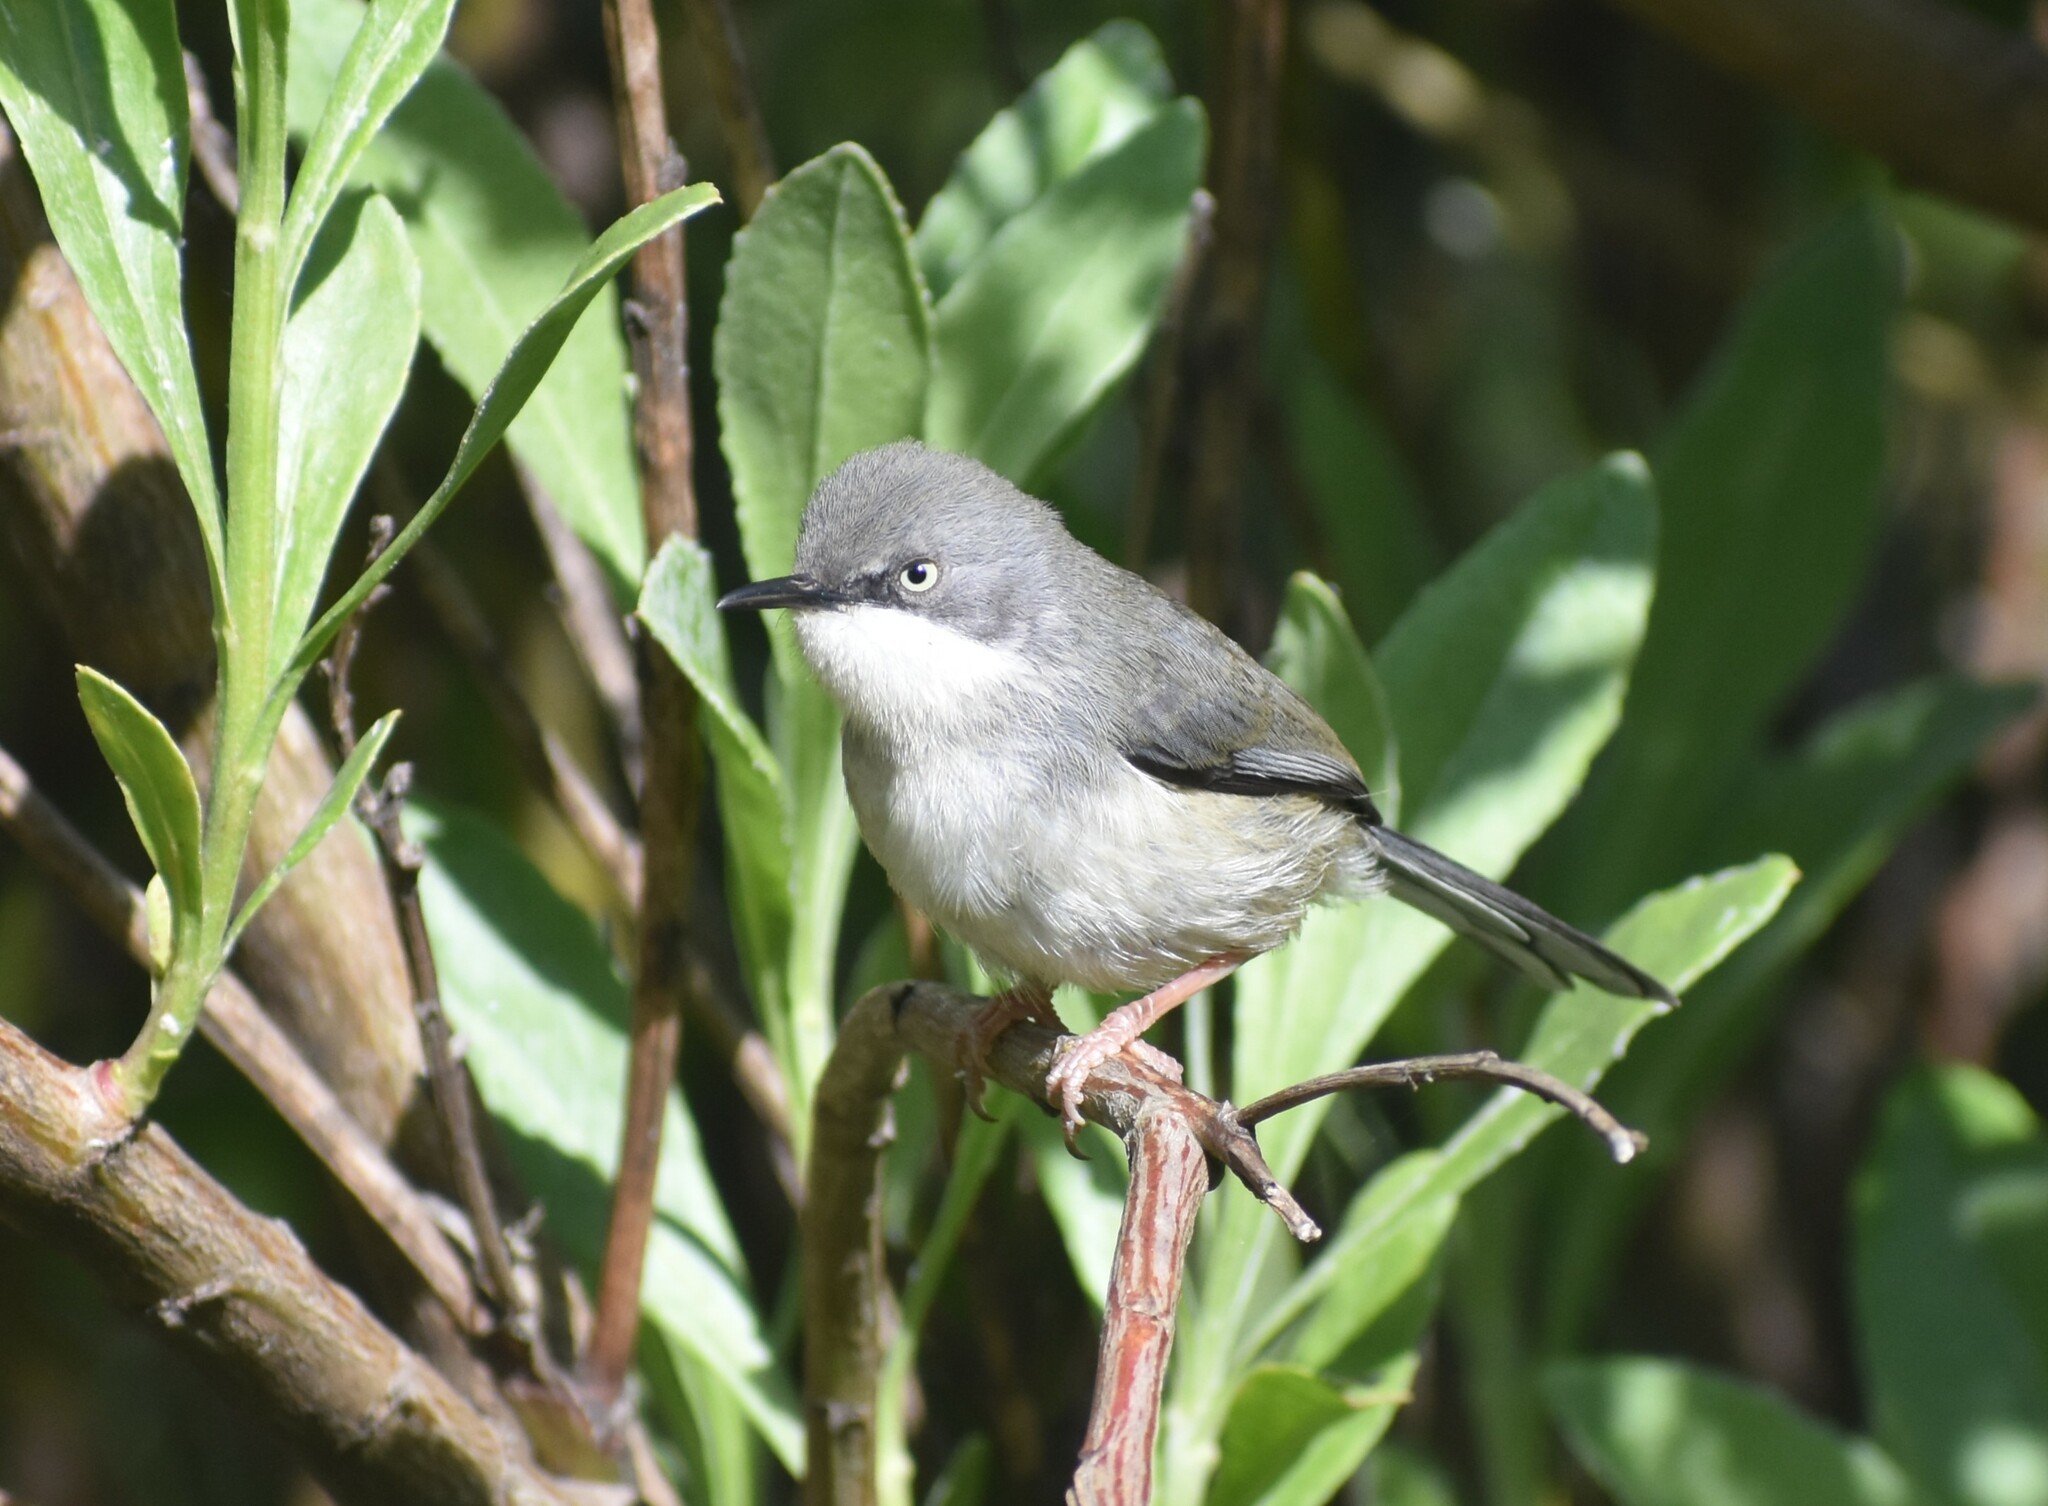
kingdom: Animalia
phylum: Chordata
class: Aves
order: Passeriformes
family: Cisticolidae
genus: Apalis
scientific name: Apalis thoracica
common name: Bar-throated apalis
